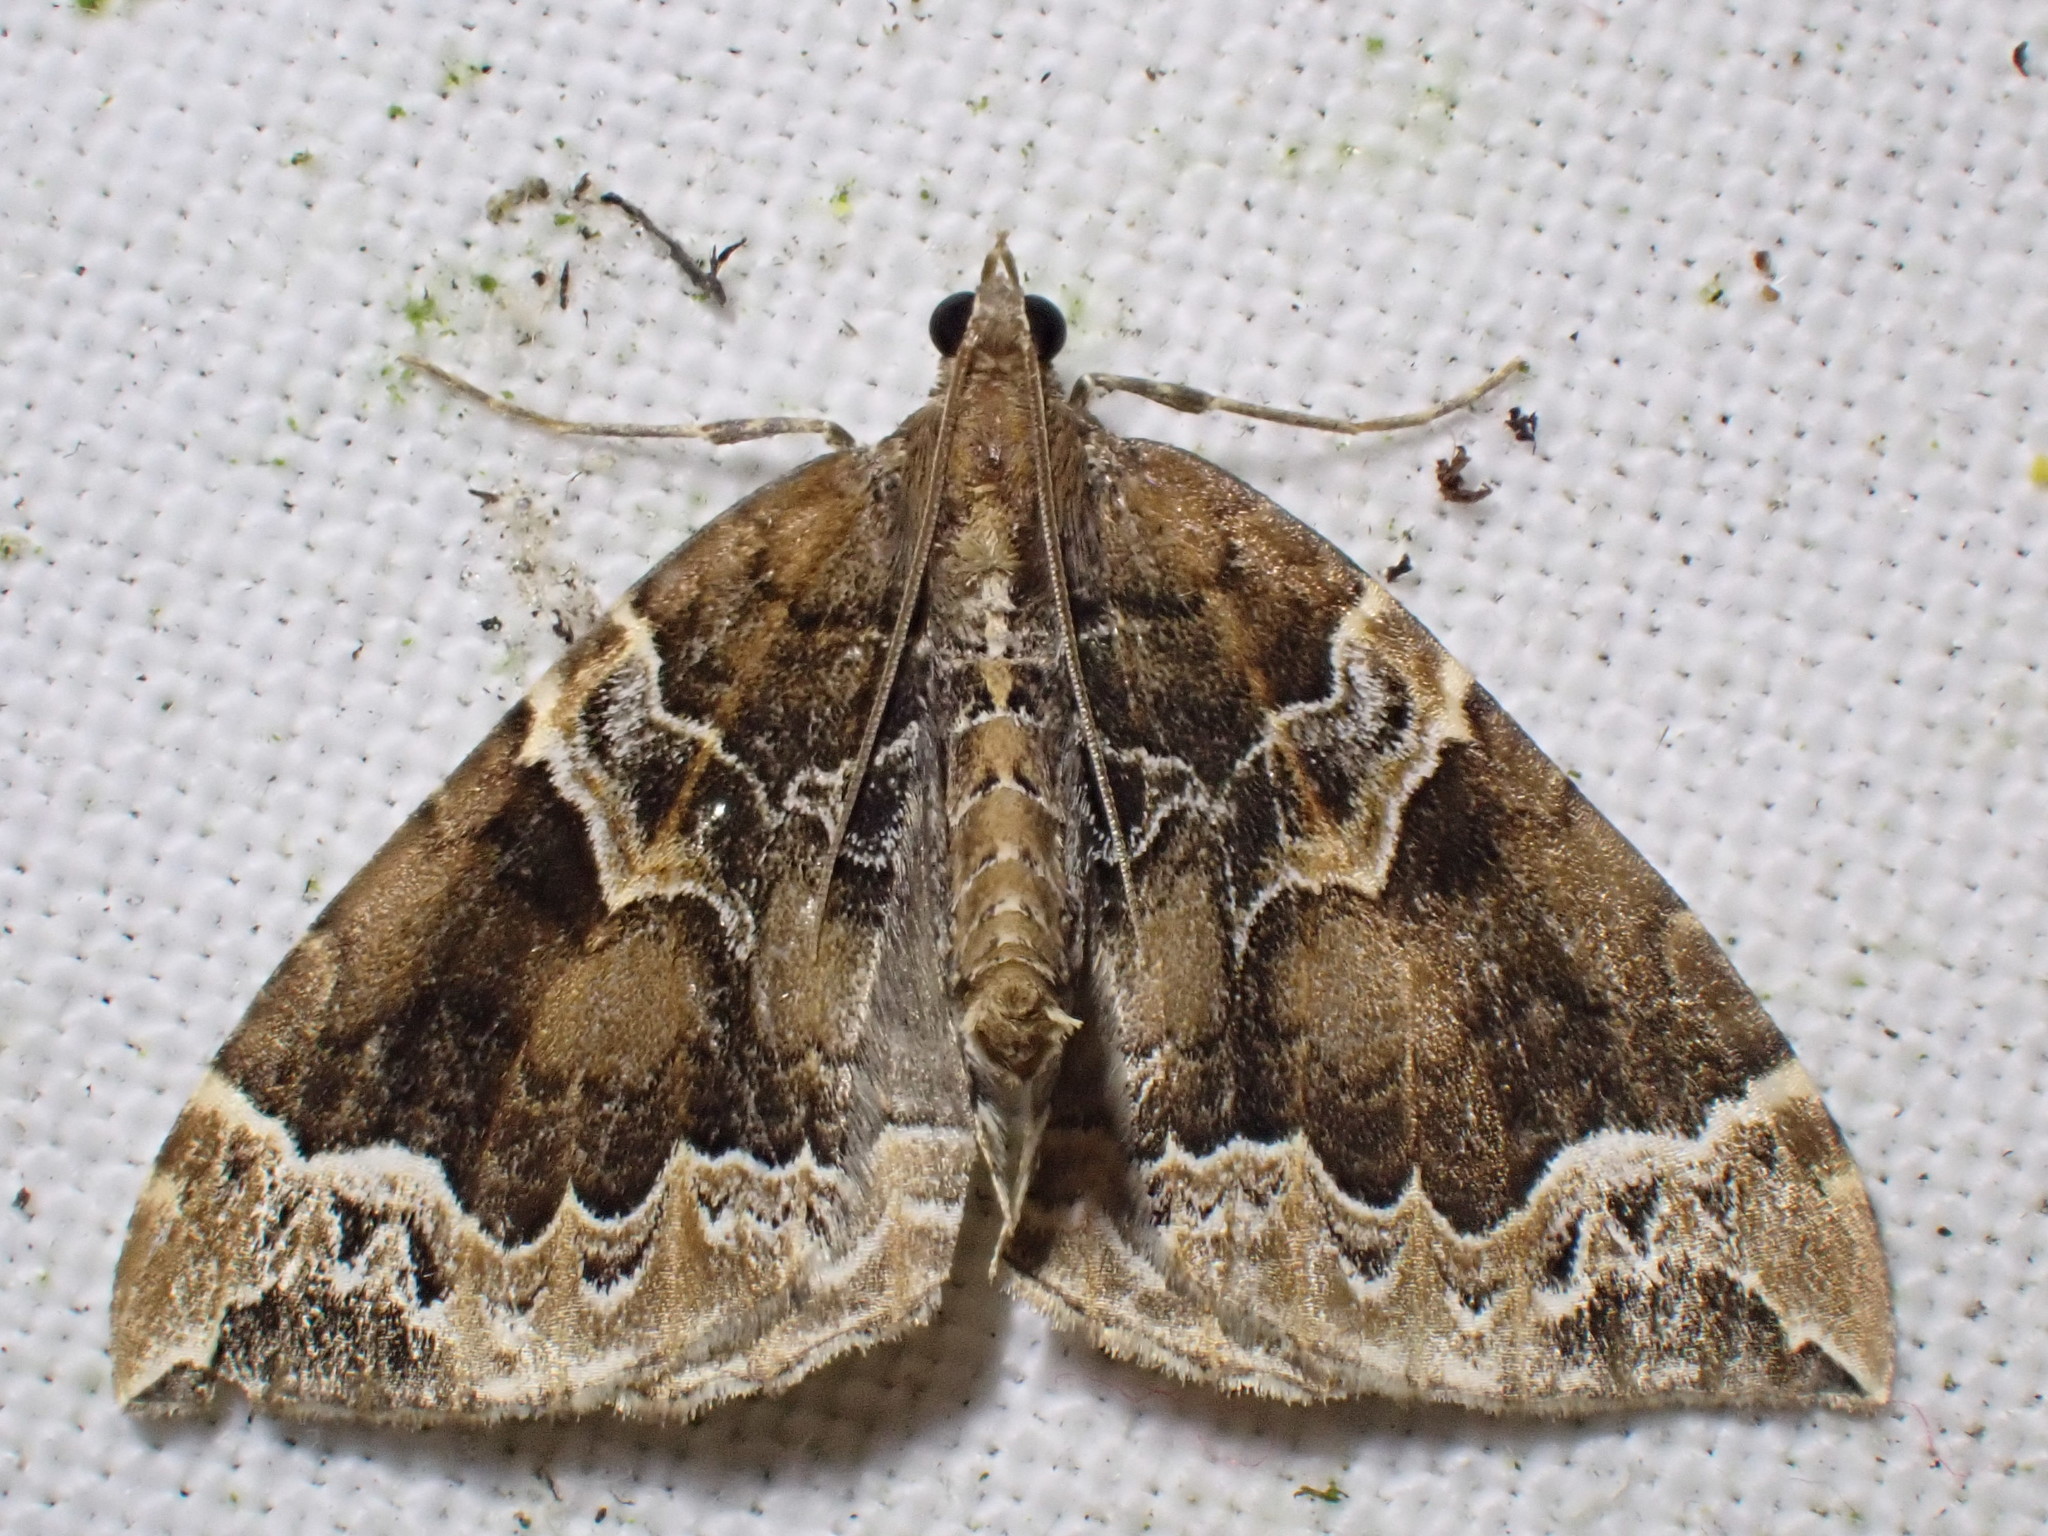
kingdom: Animalia
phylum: Arthropoda
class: Insecta
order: Lepidoptera
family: Geometridae
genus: Eulithis
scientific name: Eulithis prunata
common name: Phoenix
